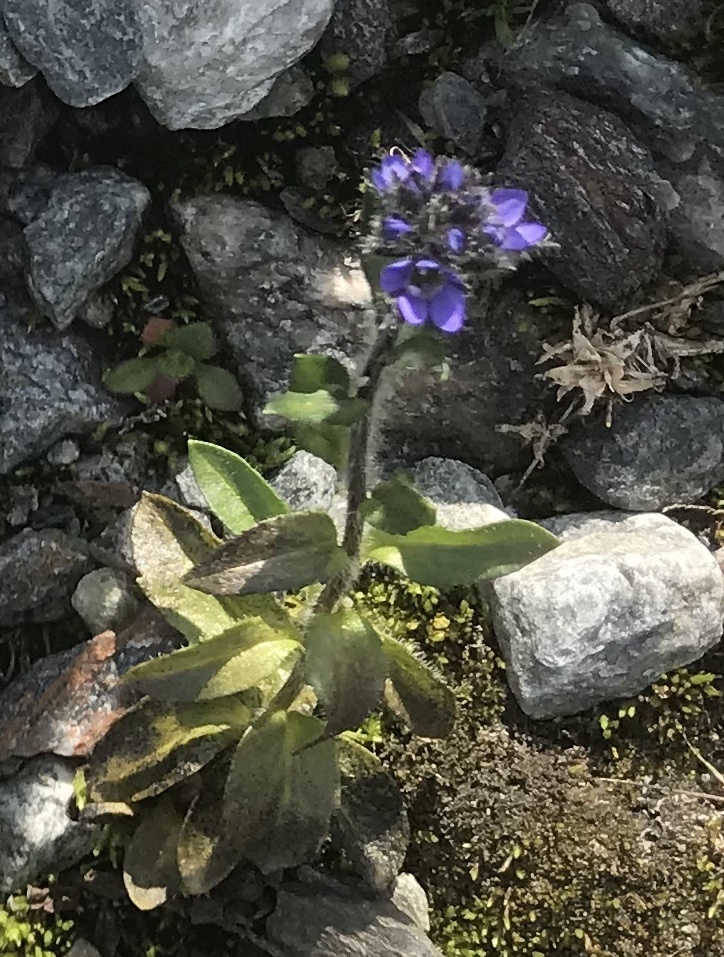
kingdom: Plantae
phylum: Tracheophyta
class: Magnoliopsida
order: Lamiales
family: Plantaginaceae
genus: Veronica
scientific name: Veronica alpina
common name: Alpine speedwell
